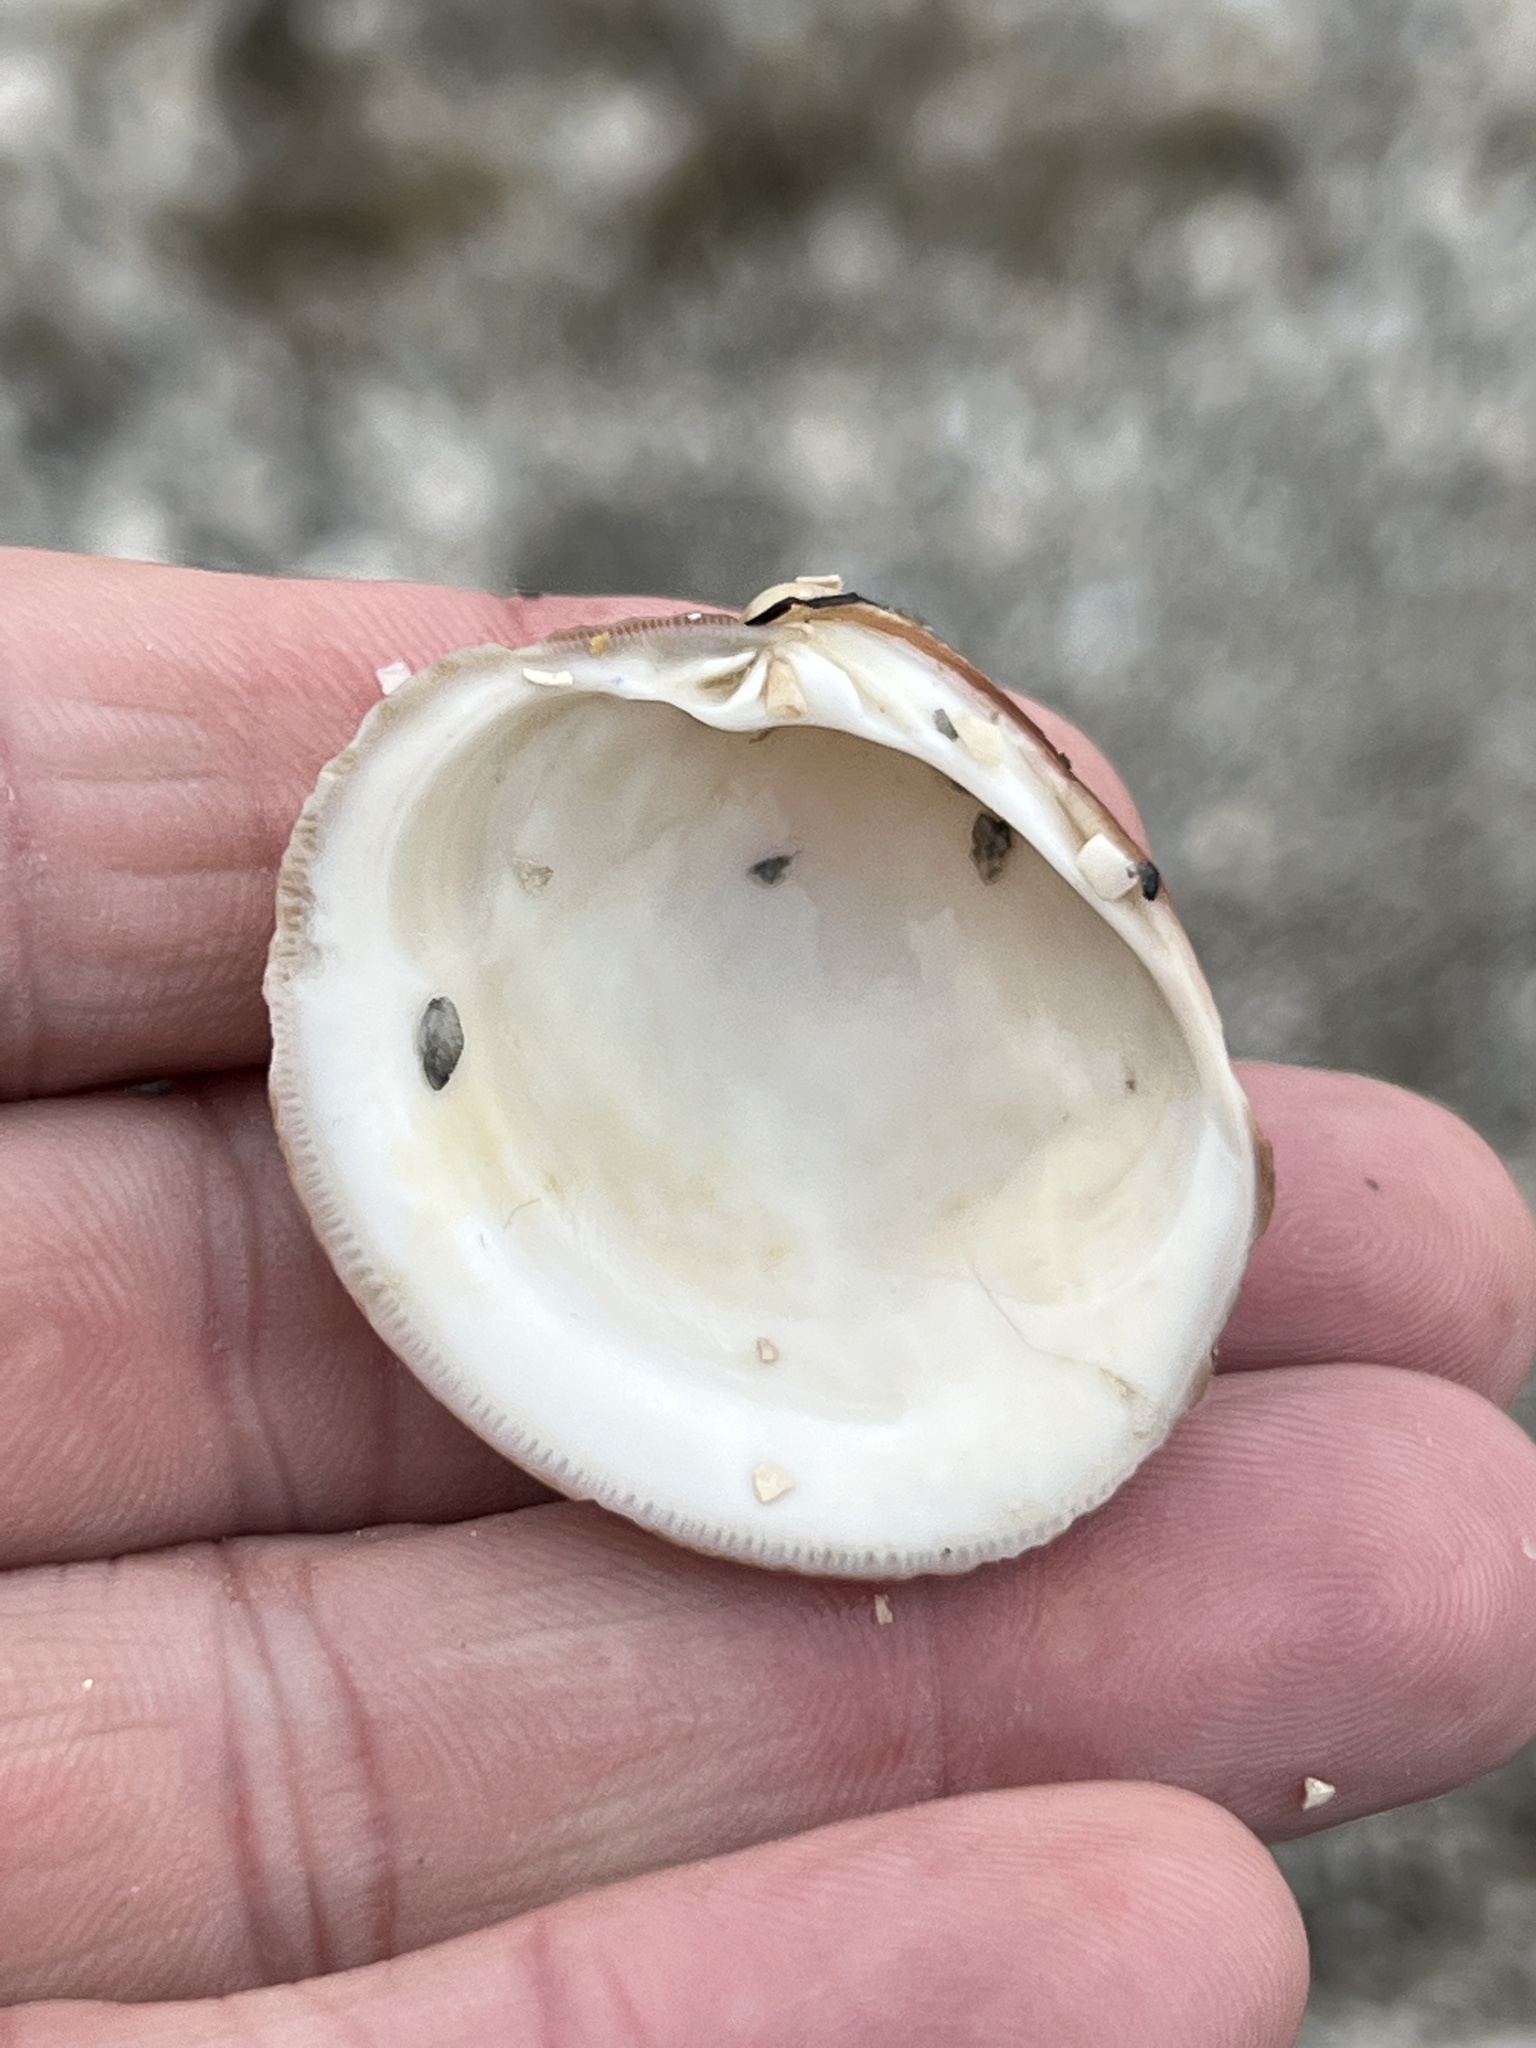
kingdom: Animalia
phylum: Mollusca
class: Bivalvia
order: Venerida
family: Veneridae
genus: Mercenaria
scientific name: Mercenaria campechiensis
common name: Südliche quahog-muschel
